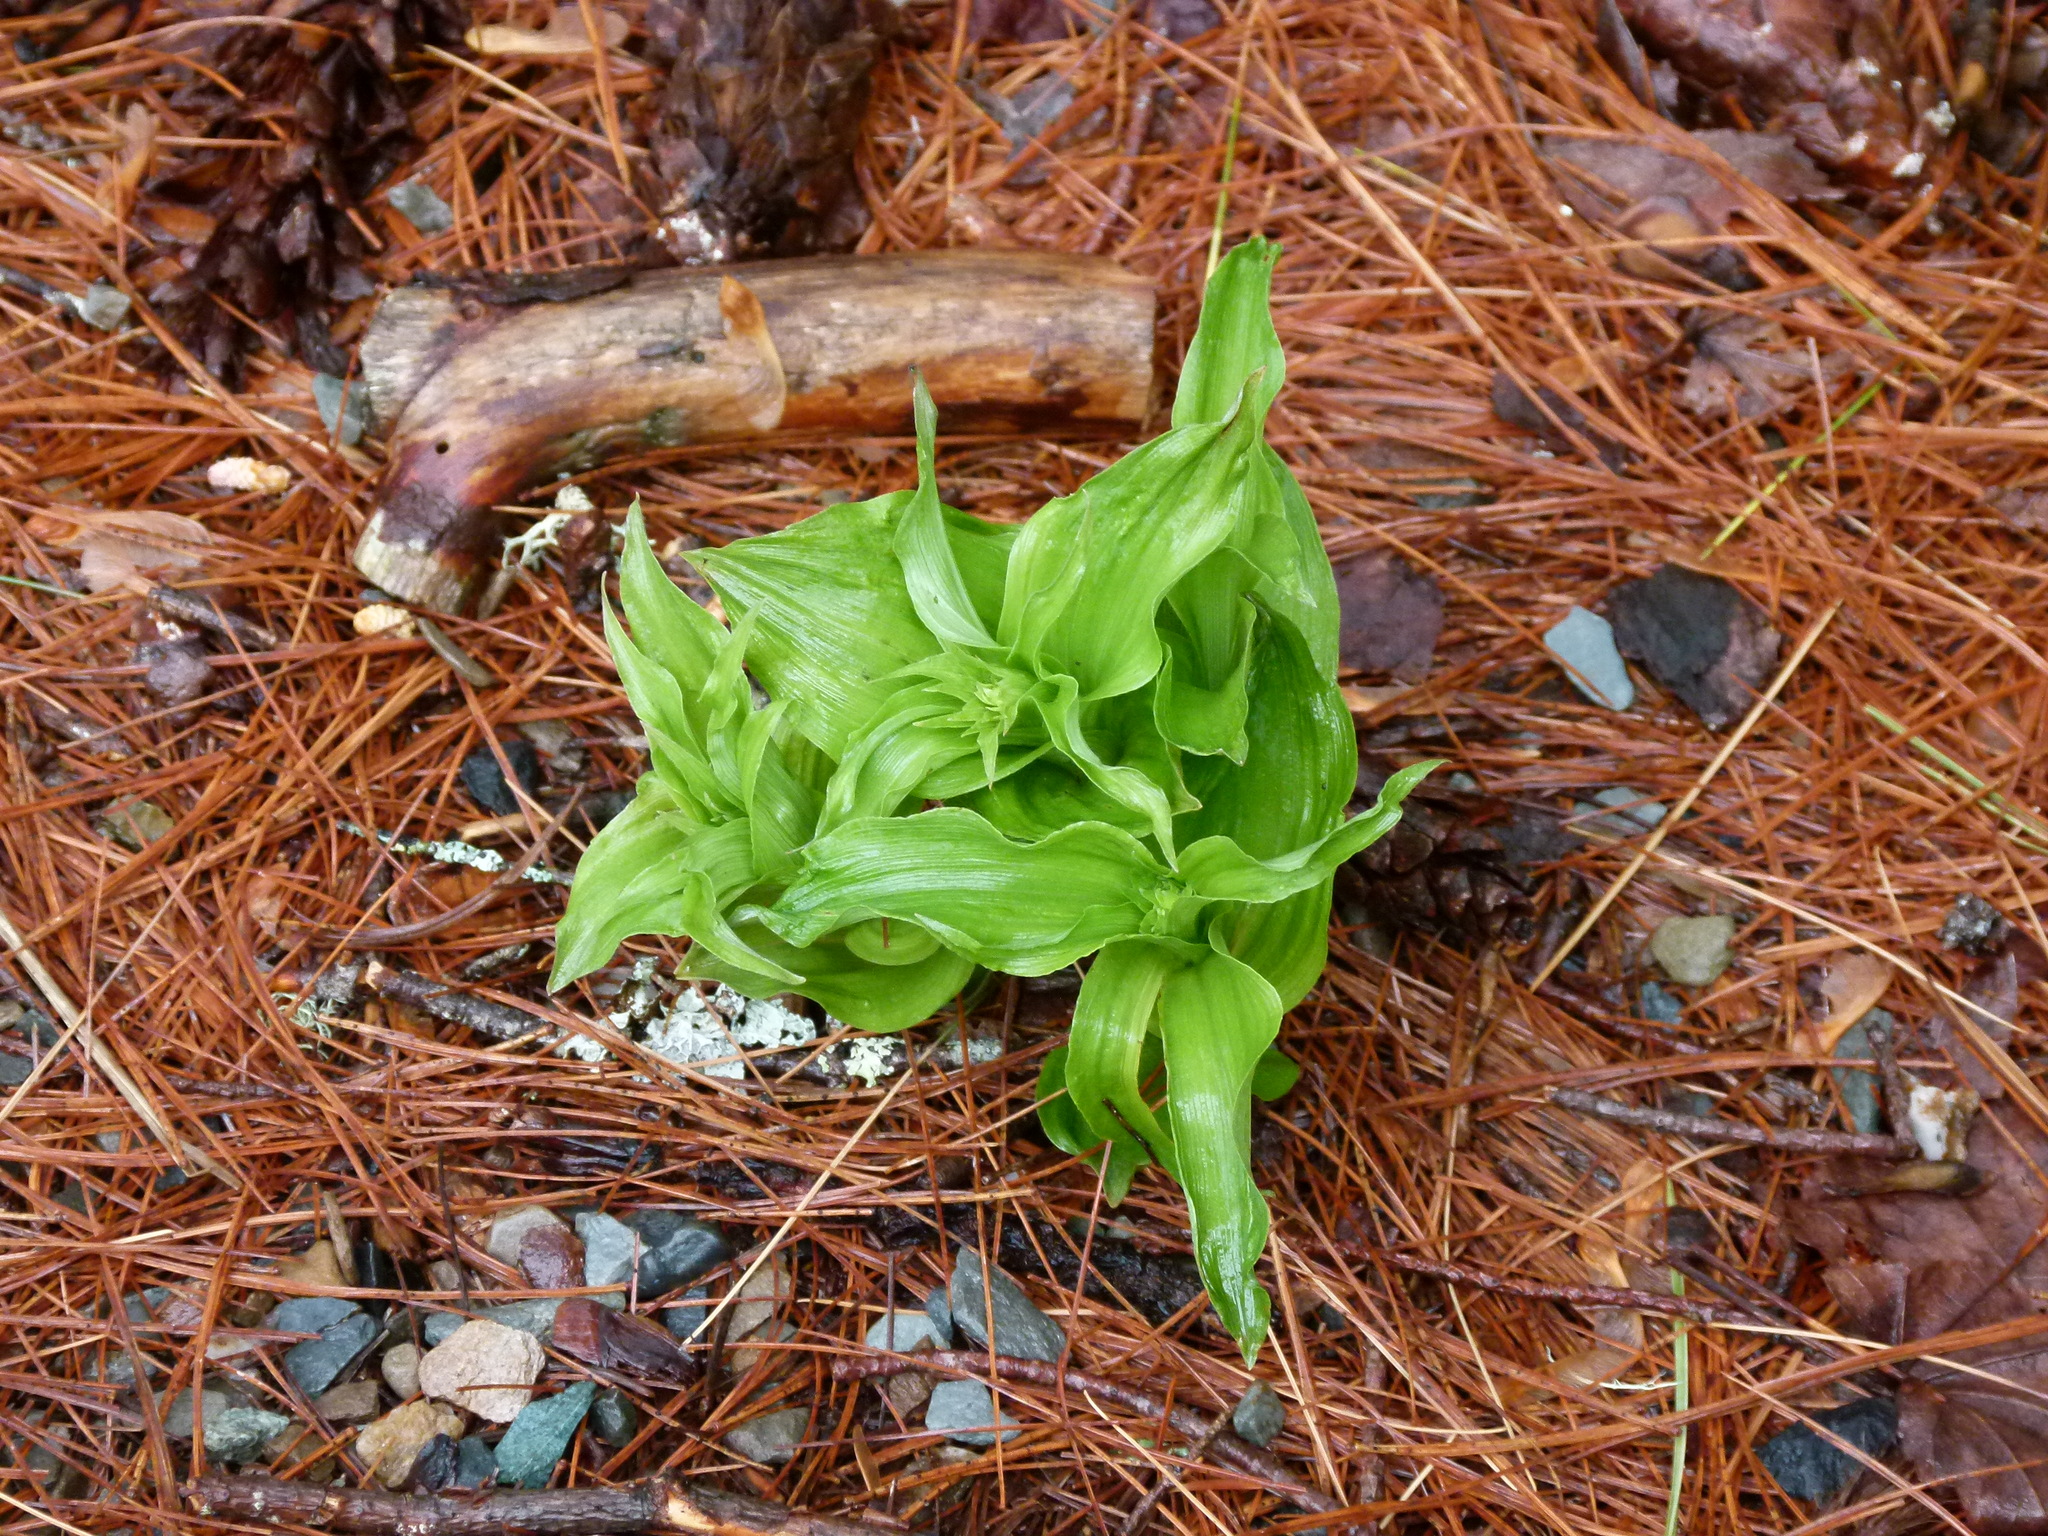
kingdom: Plantae
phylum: Tracheophyta
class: Liliopsida
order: Asparagales
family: Orchidaceae
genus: Epipactis
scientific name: Epipactis helleborine
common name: Broad-leaved helleborine
